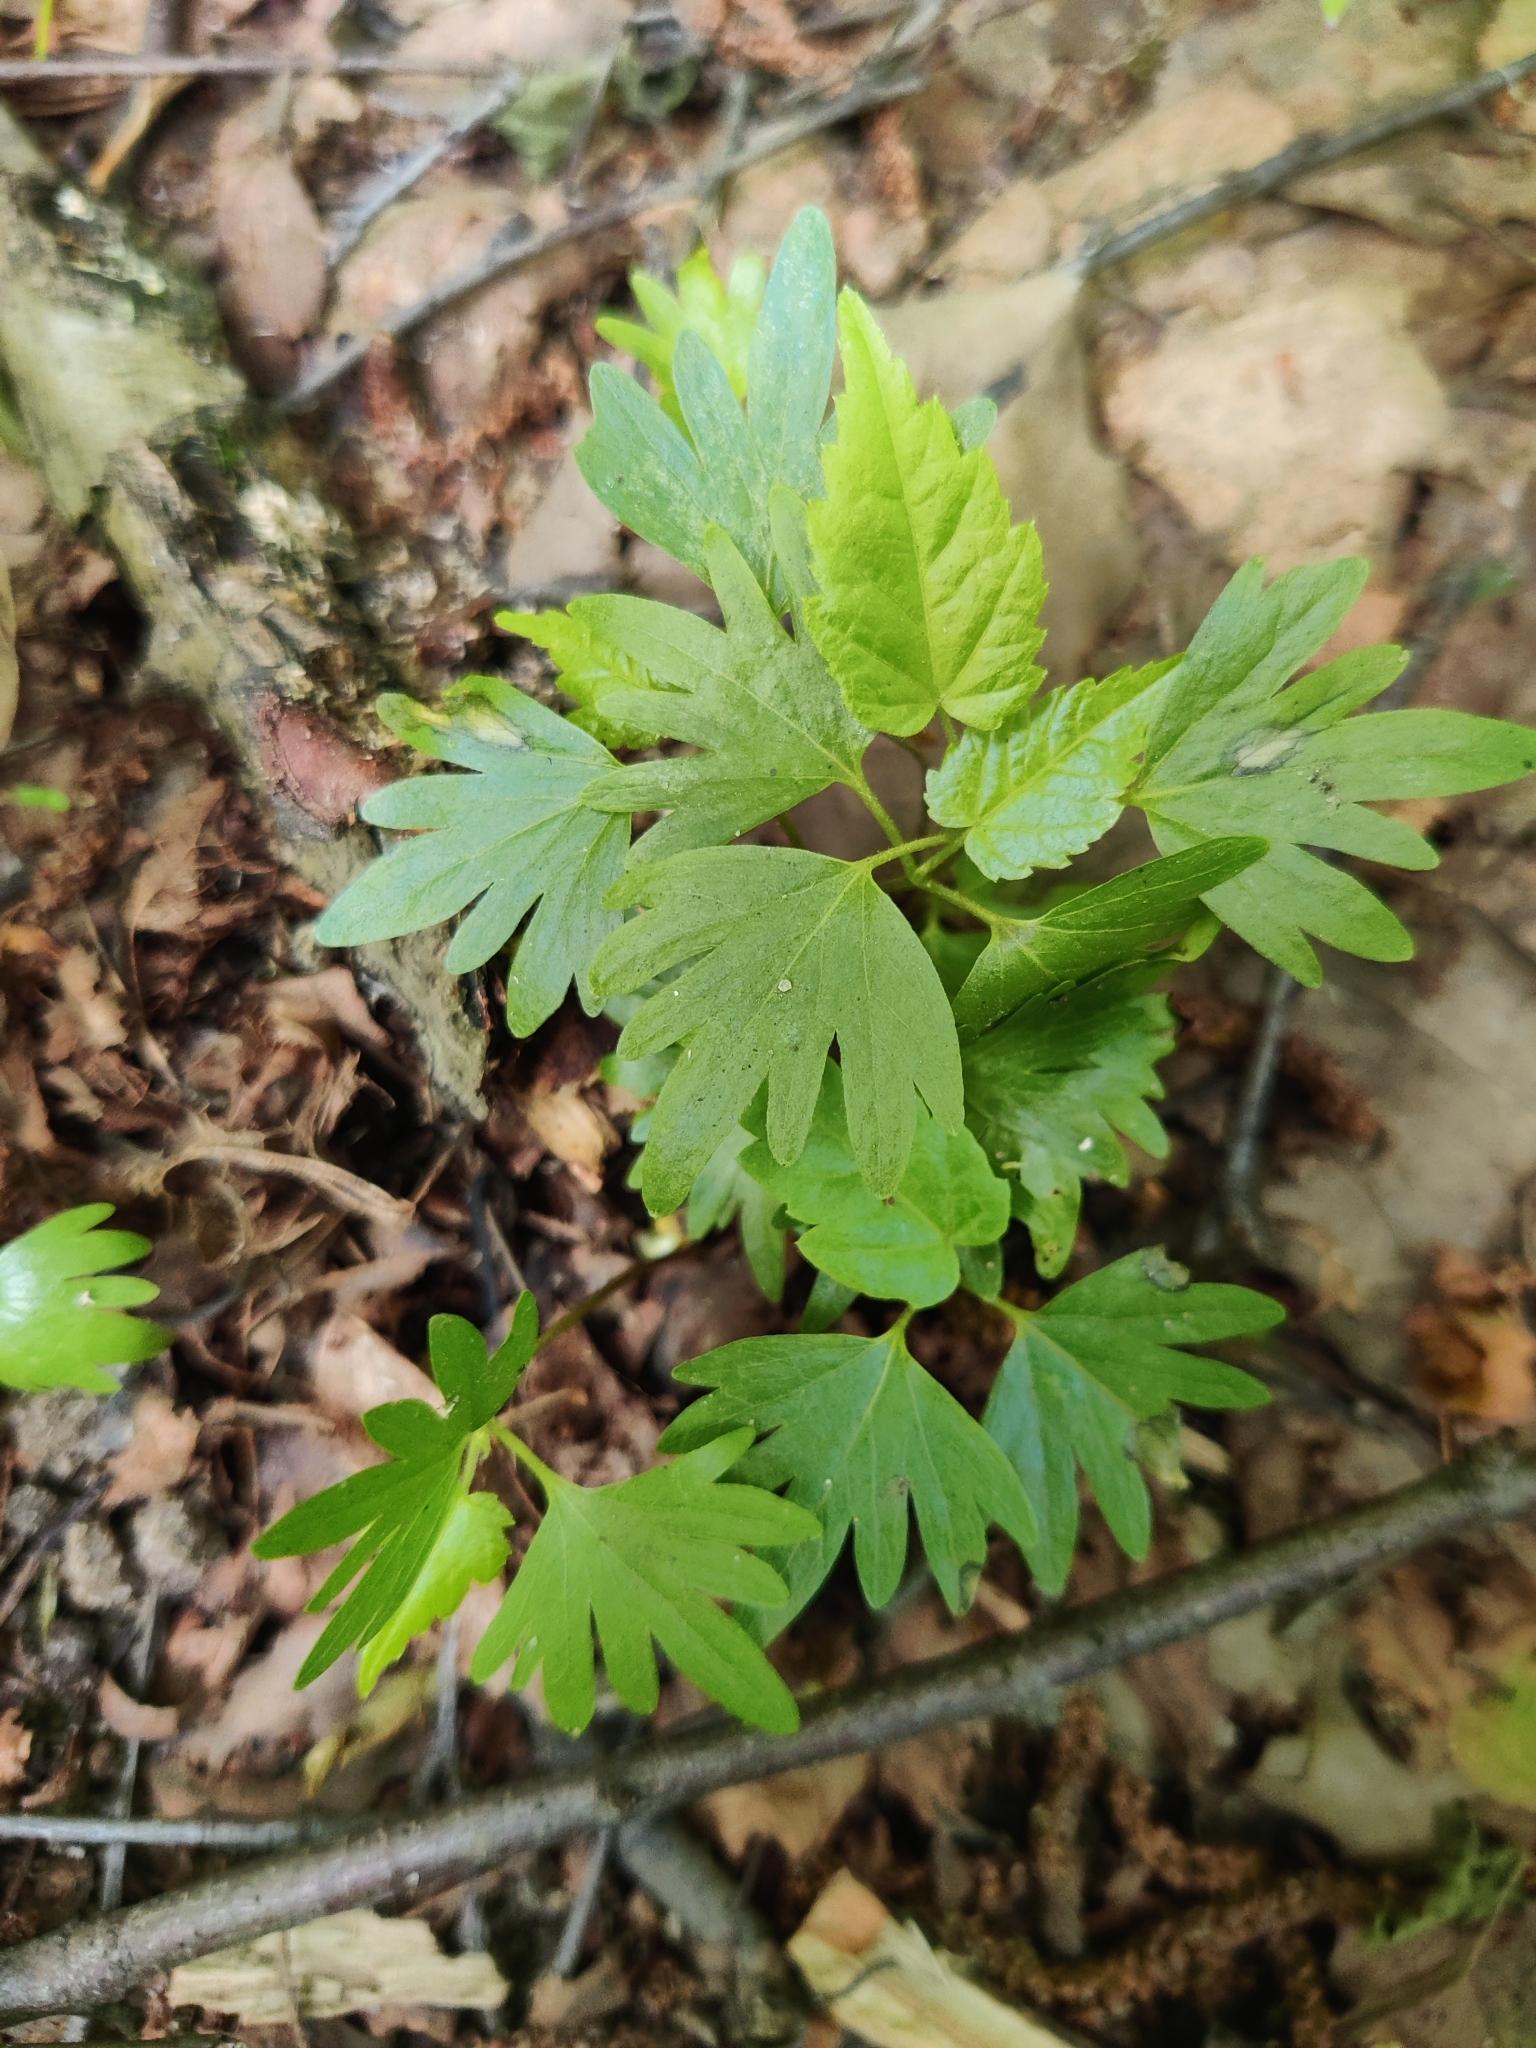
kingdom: Plantae
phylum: Tracheophyta
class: Magnoliopsida
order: Malvales
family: Malvaceae
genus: Tilia
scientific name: Tilia cordata
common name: Small-leaved lime
